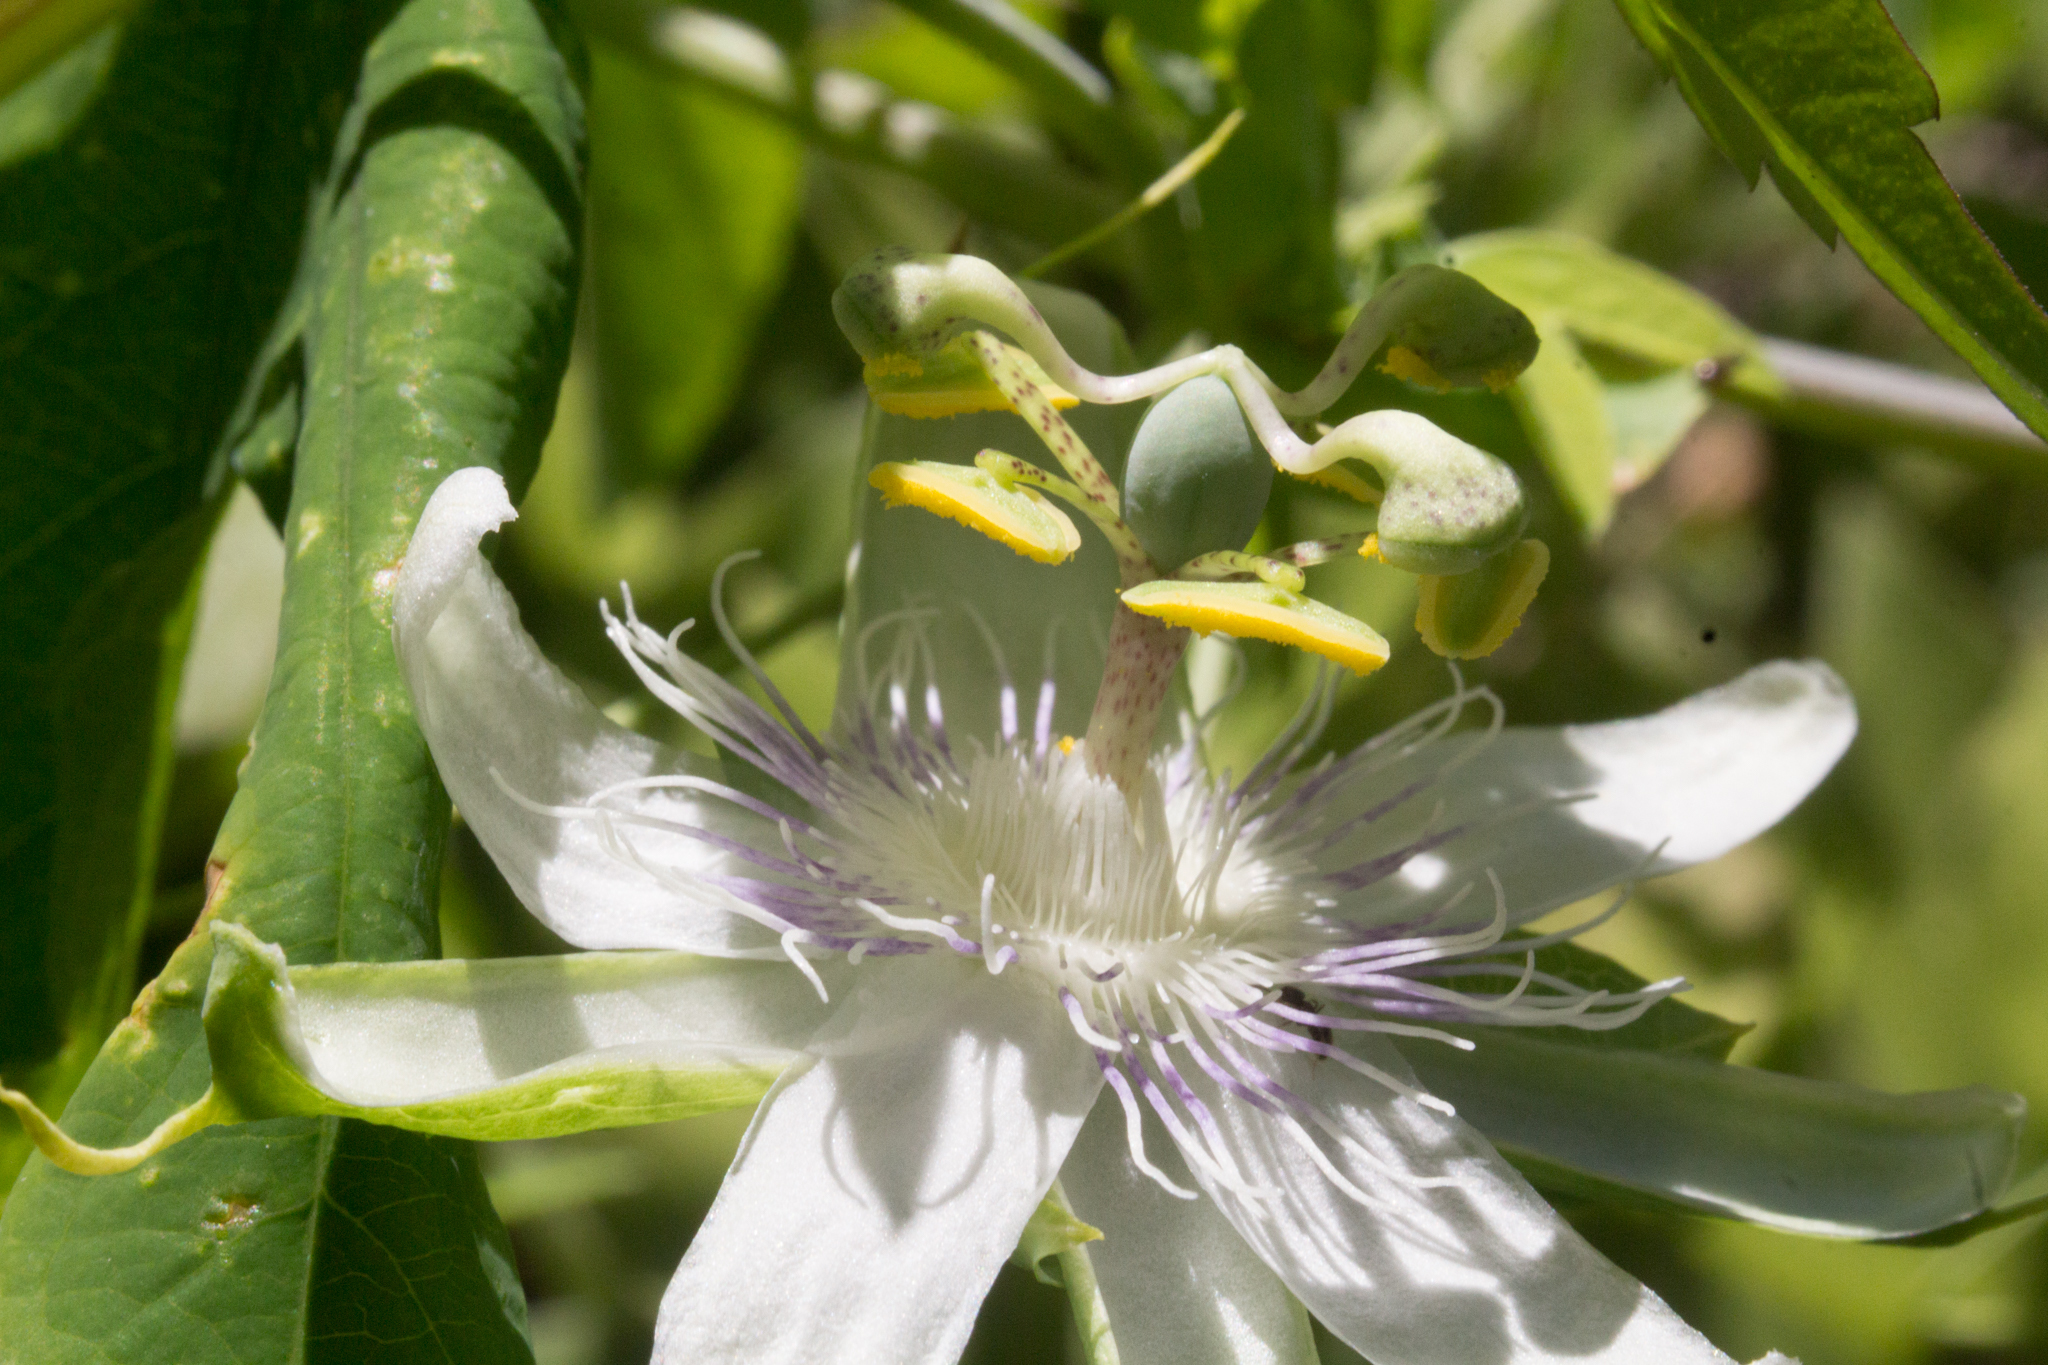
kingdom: Plantae
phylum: Tracheophyta
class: Magnoliopsida
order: Malpighiales
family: Passifloraceae
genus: Passiflora
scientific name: Passiflora tenuifila
